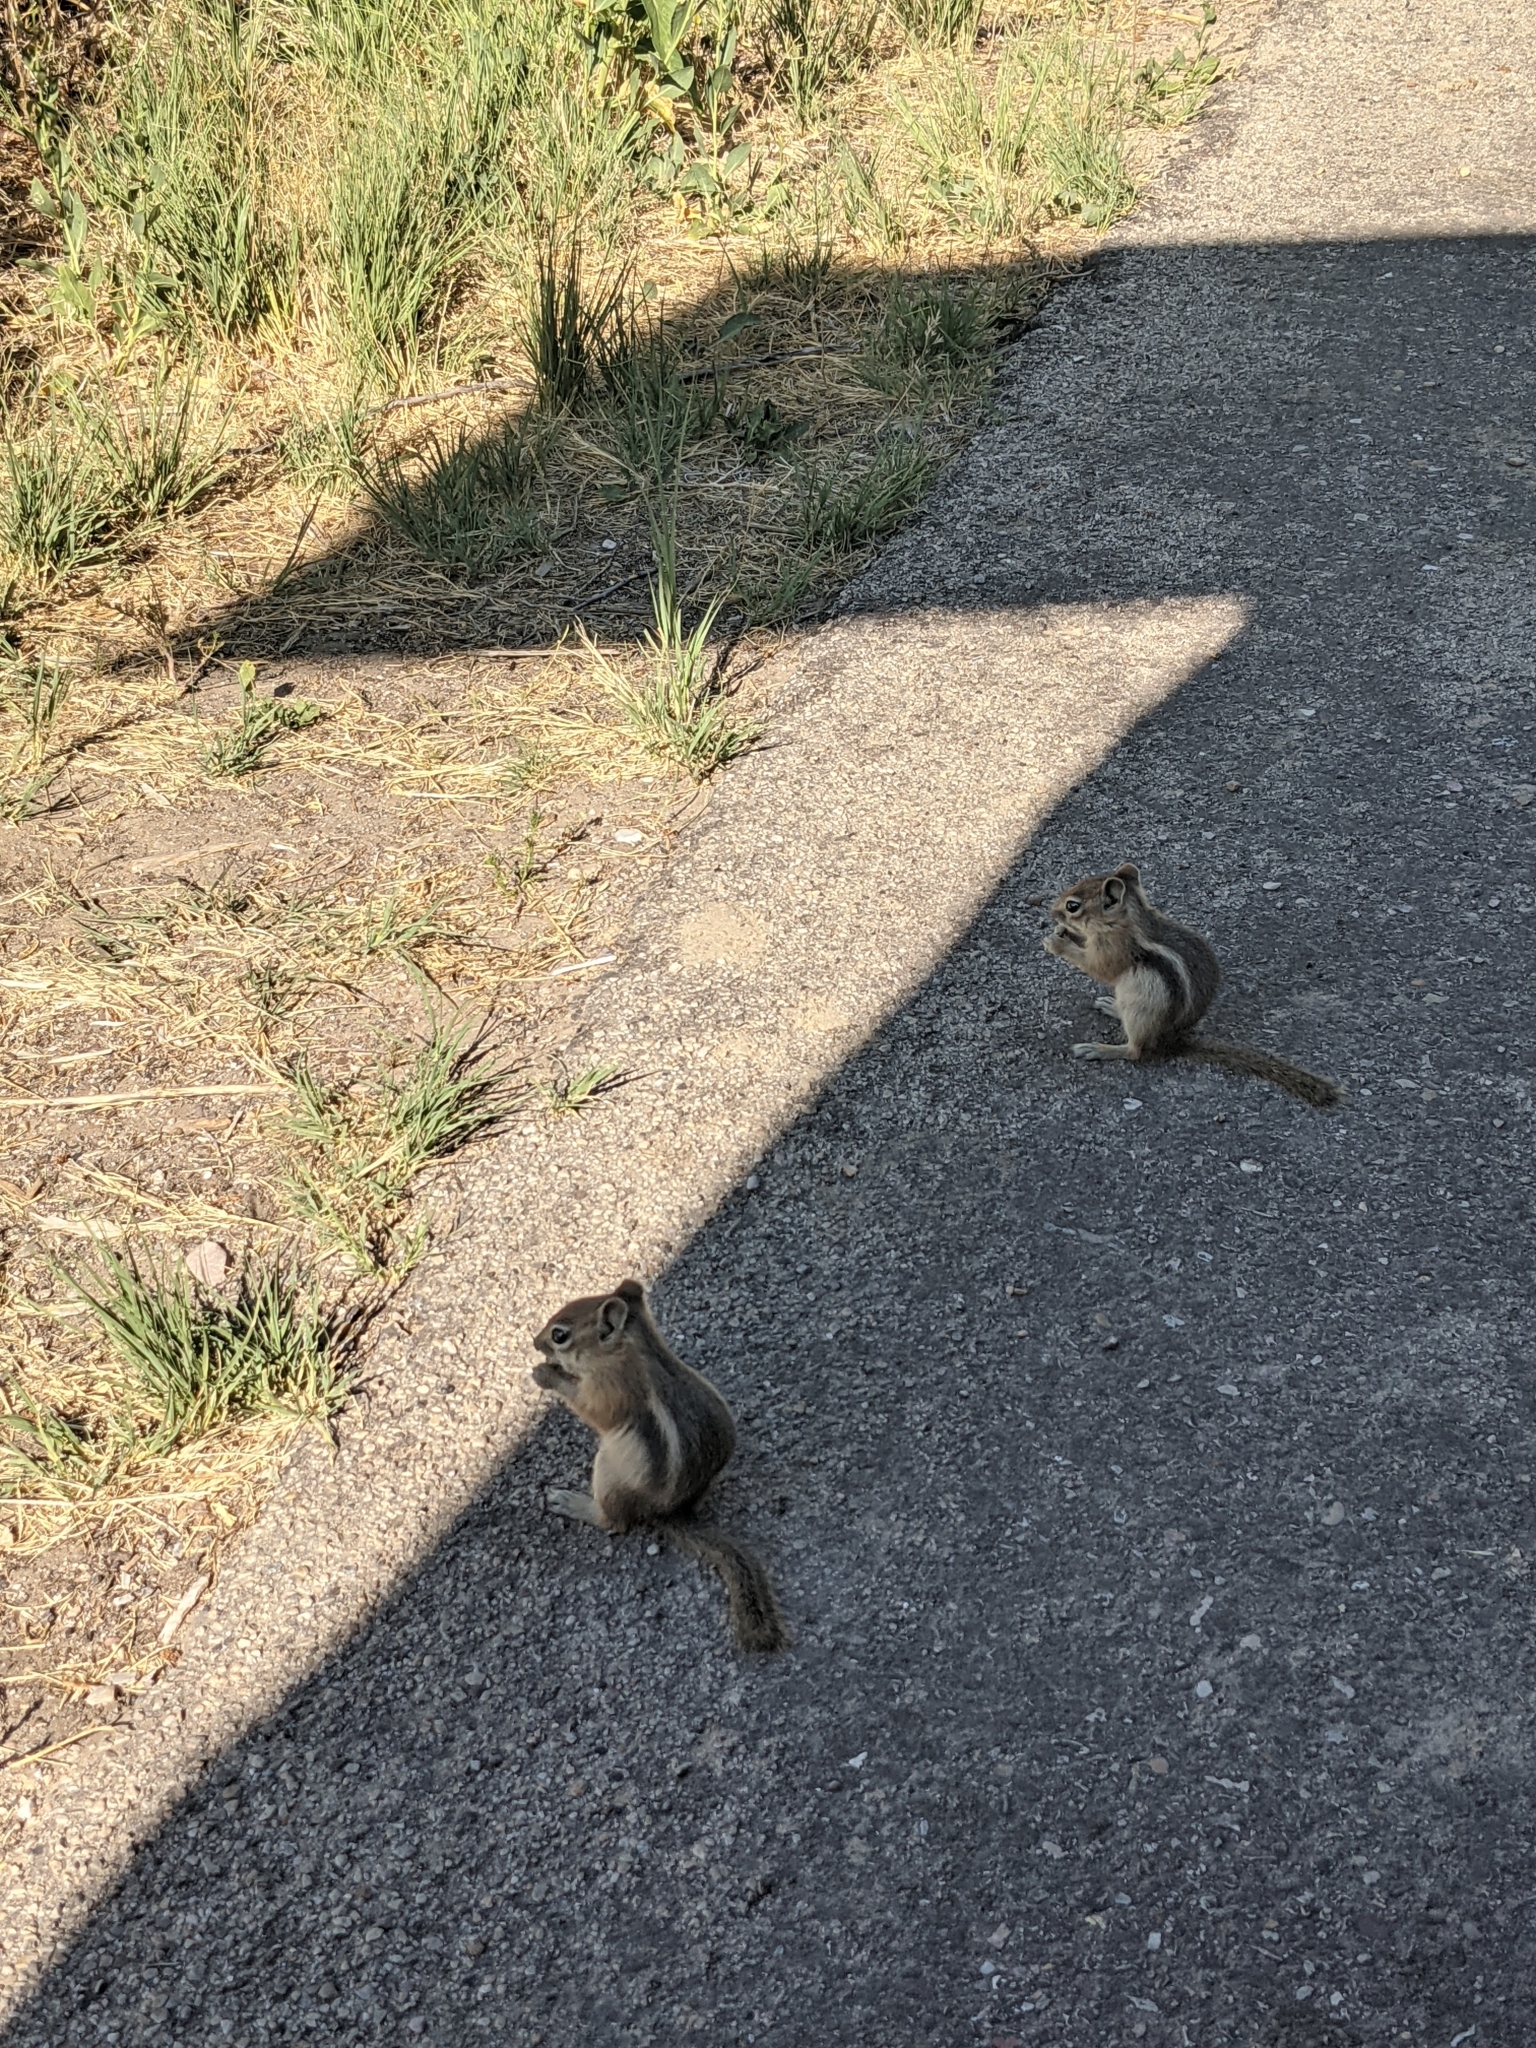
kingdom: Animalia
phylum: Chordata
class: Mammalia
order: Rodentia
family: Sciuridae
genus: Callospermophilus
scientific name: Callospermophilus lateralis
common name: Golden-mantled ground squirrel
